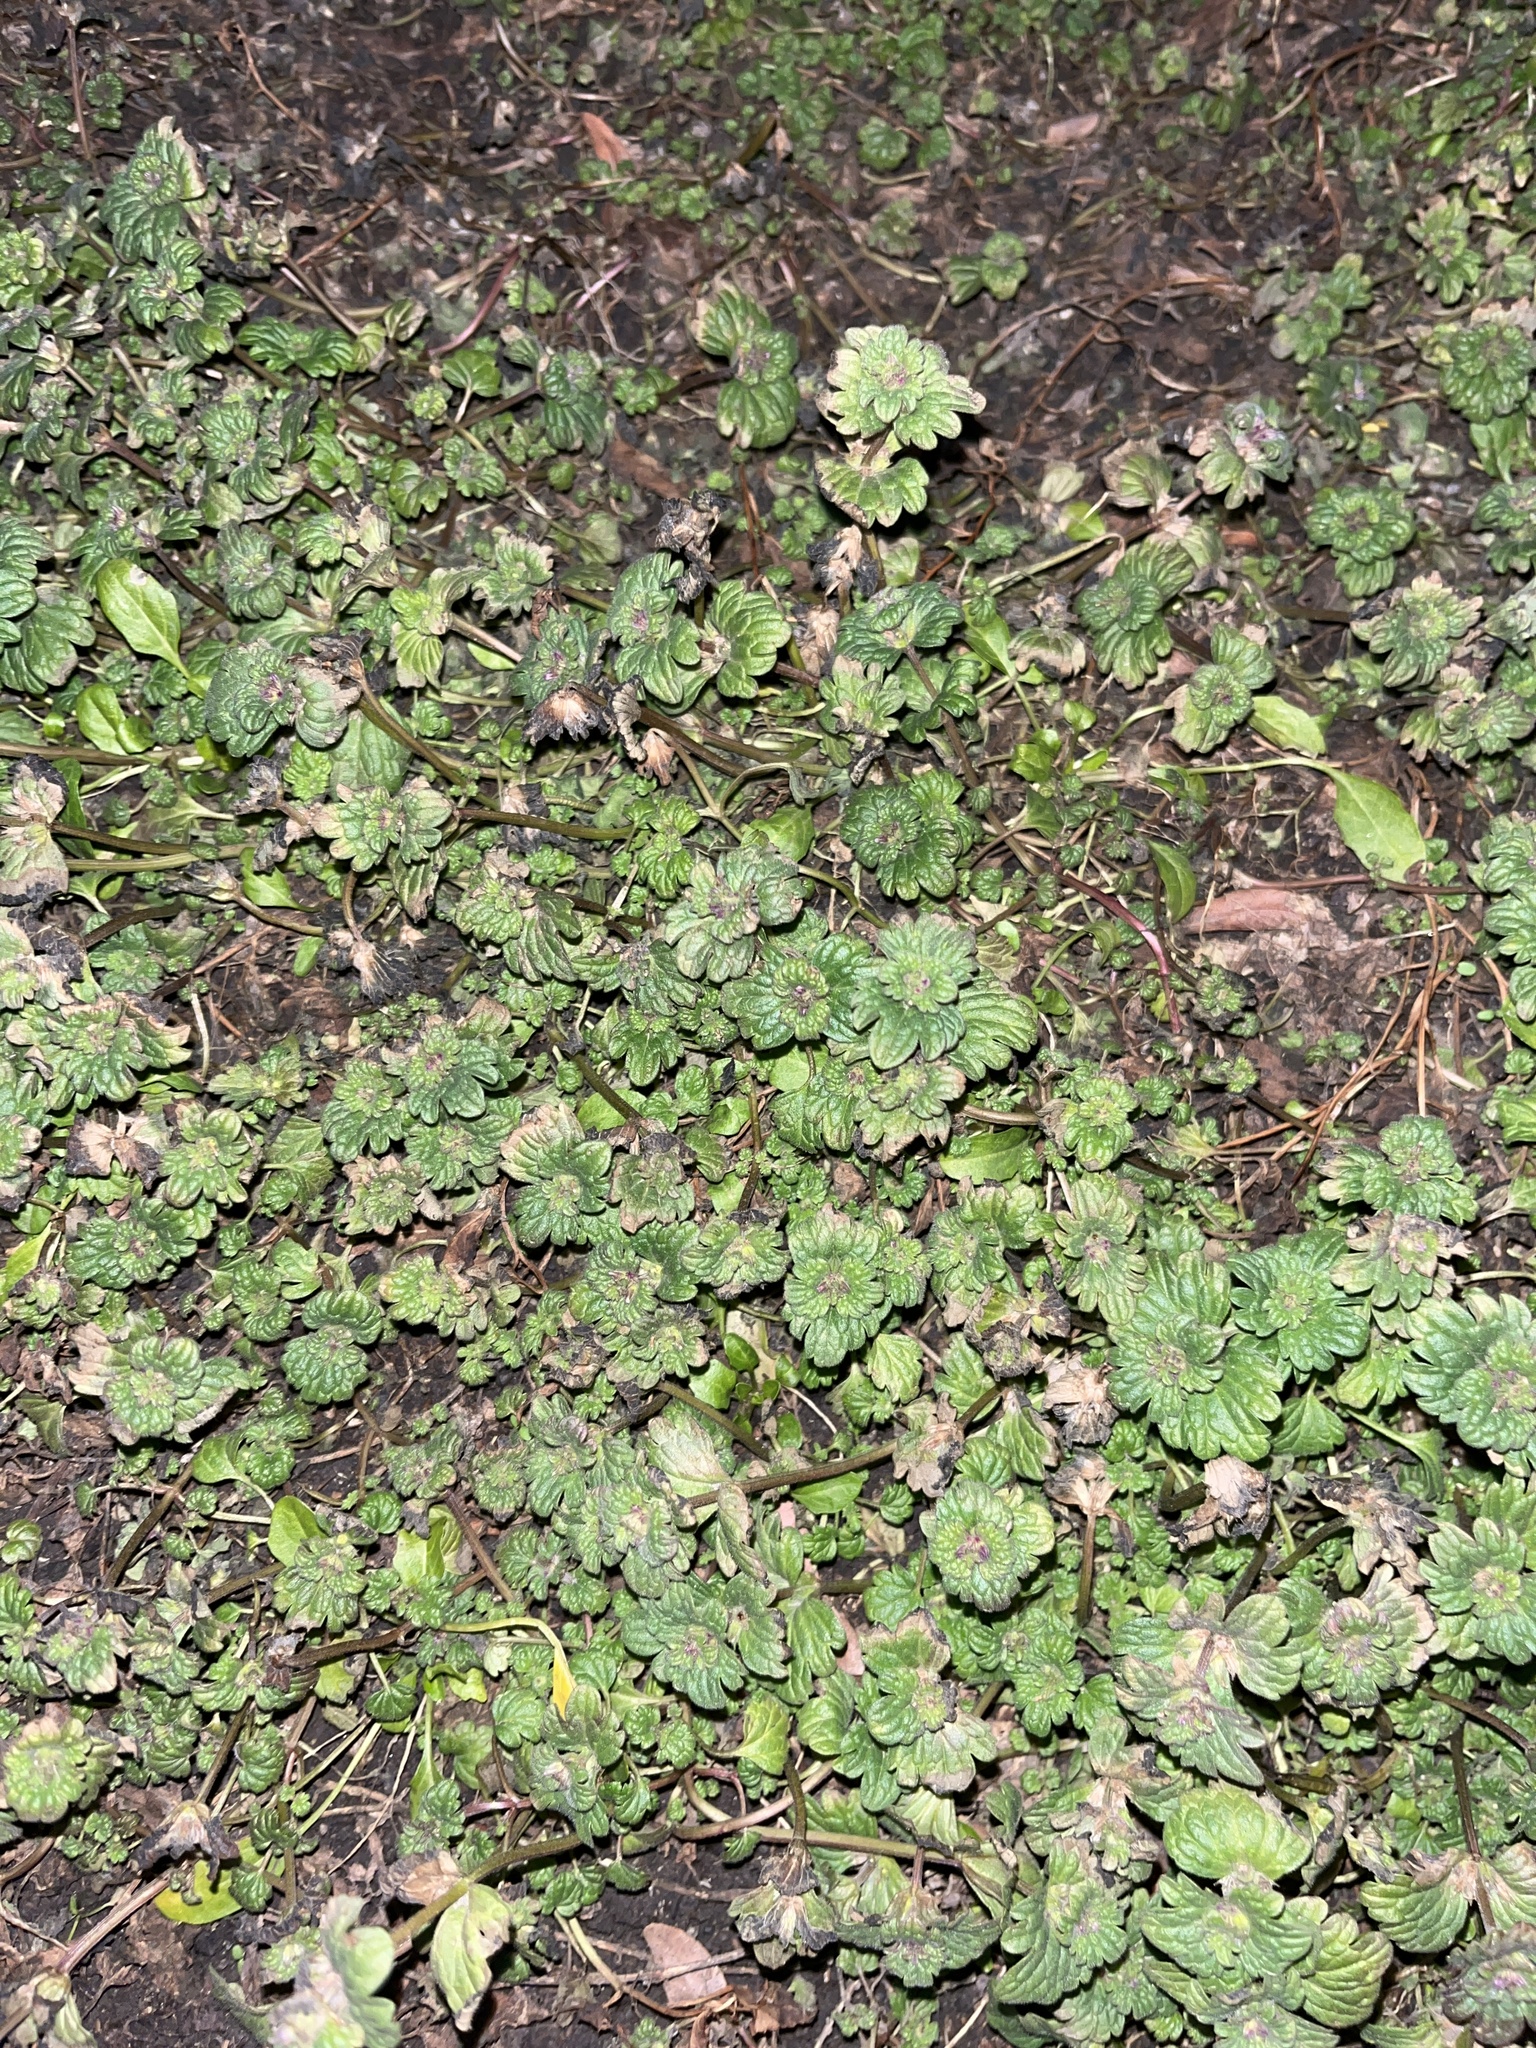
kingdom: Plantae
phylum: Tracheophyta
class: Magnoliopsida
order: Lamiales
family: Lamiaceae
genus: Lamium
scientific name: Lamium amplexicaule
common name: Henbit dead-nettle
